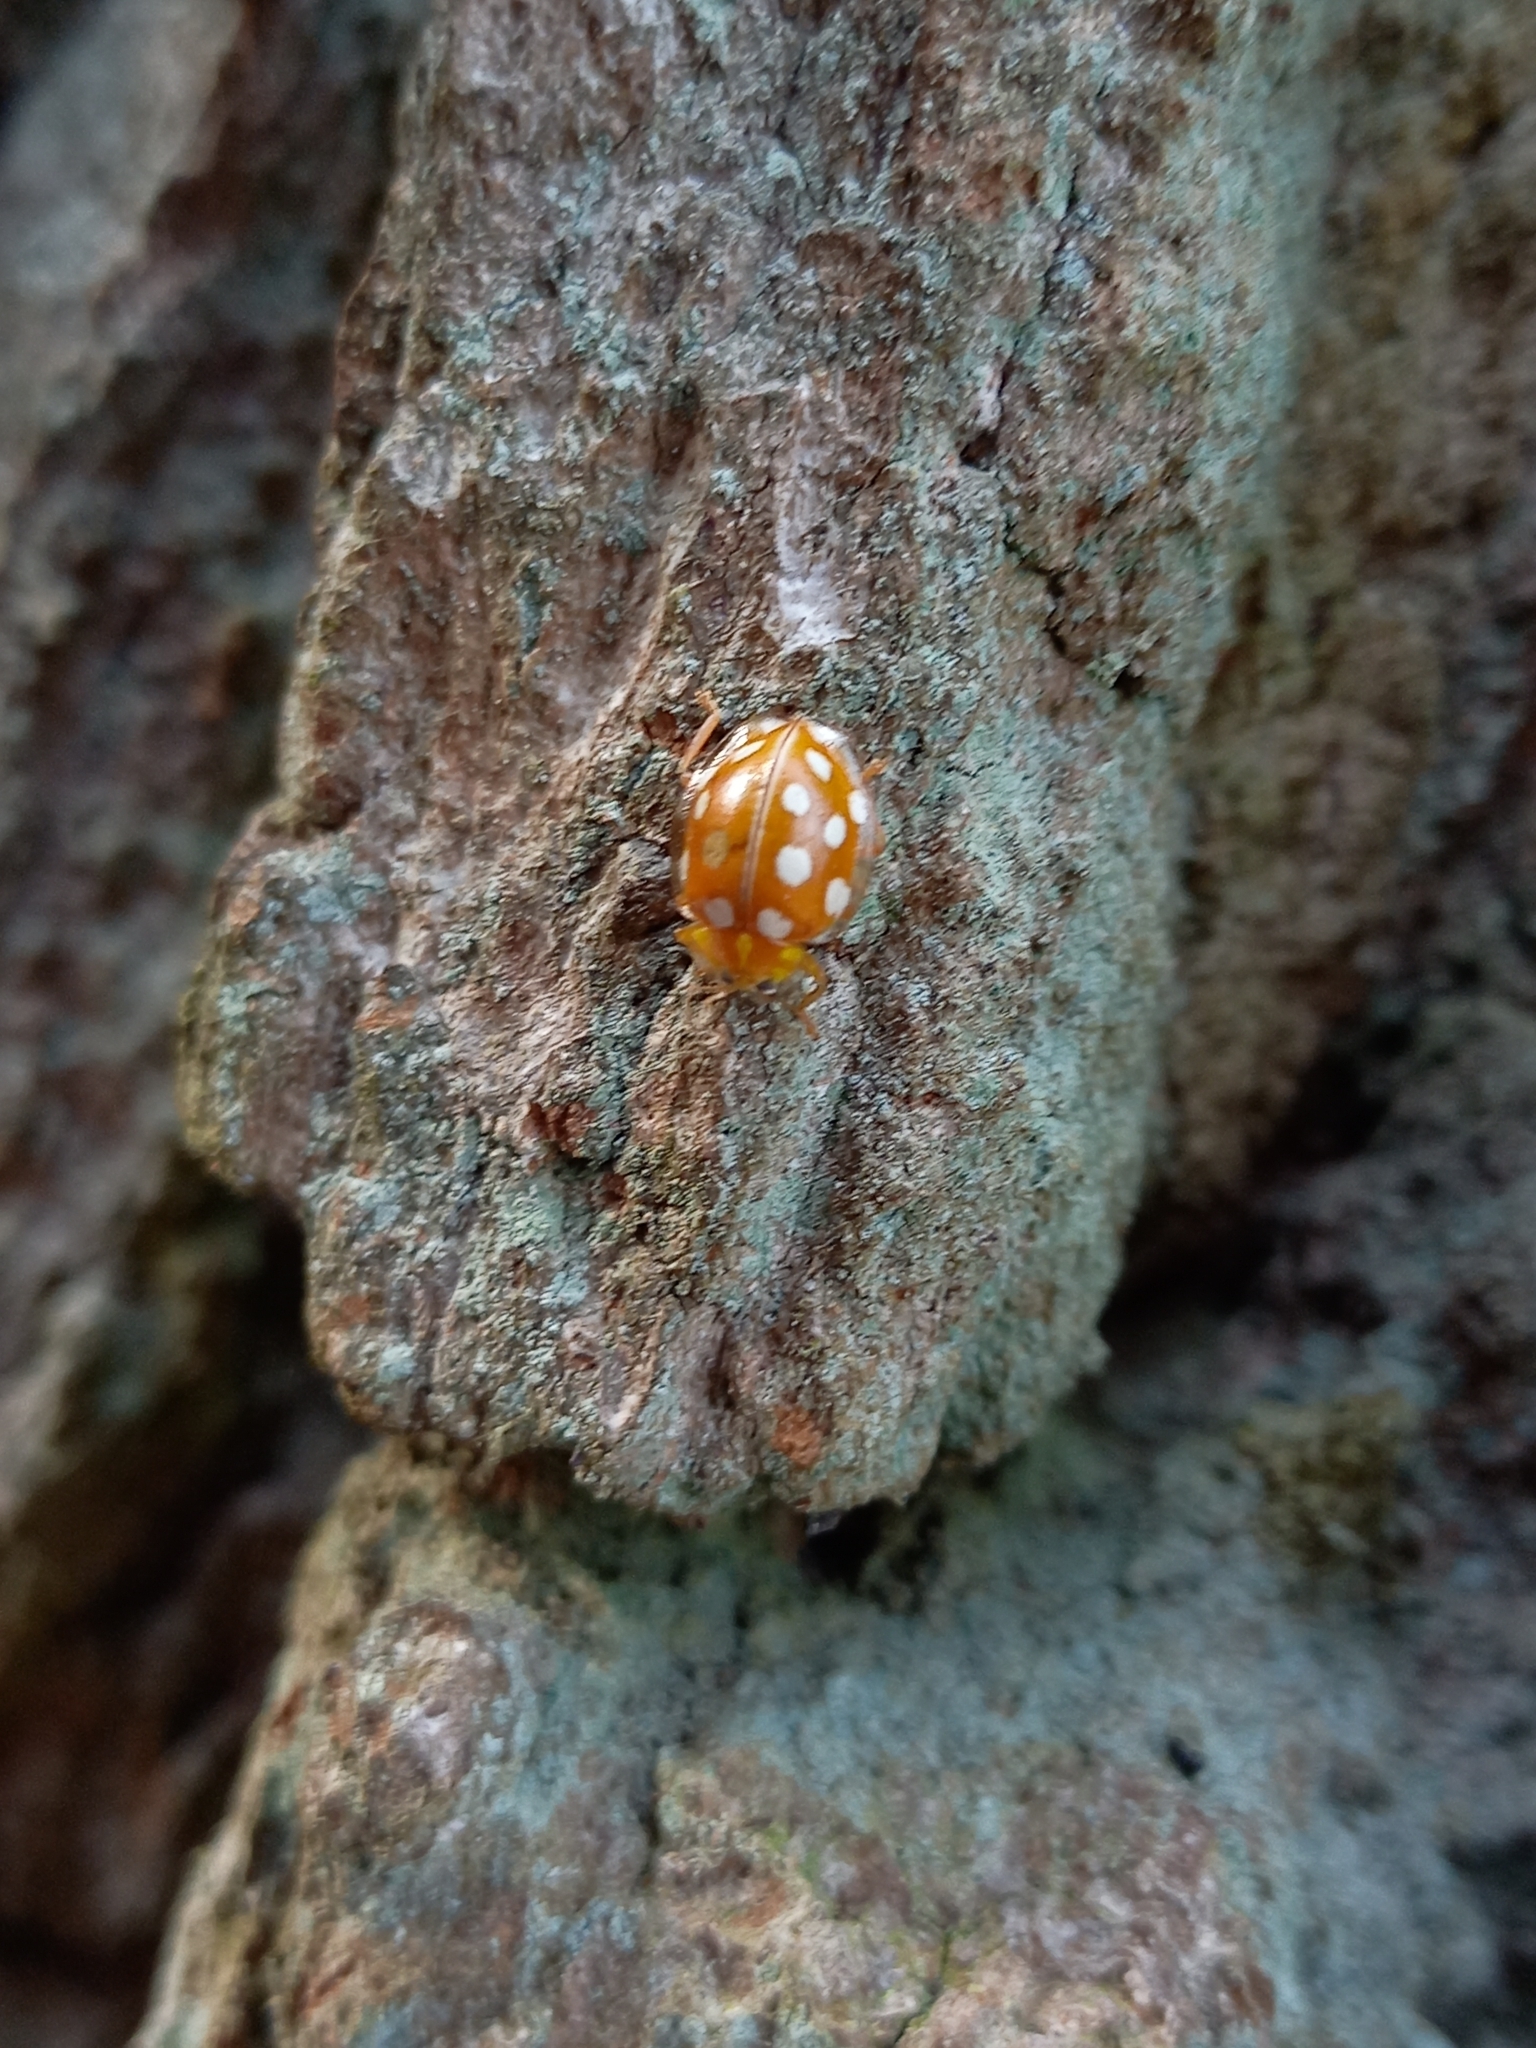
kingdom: Animalia
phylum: Arthropoda
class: Insecta
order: Coleoptera
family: Coccinellidae
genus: Halyzia
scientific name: Halyzia sedecimguttata
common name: Orange ladybird
